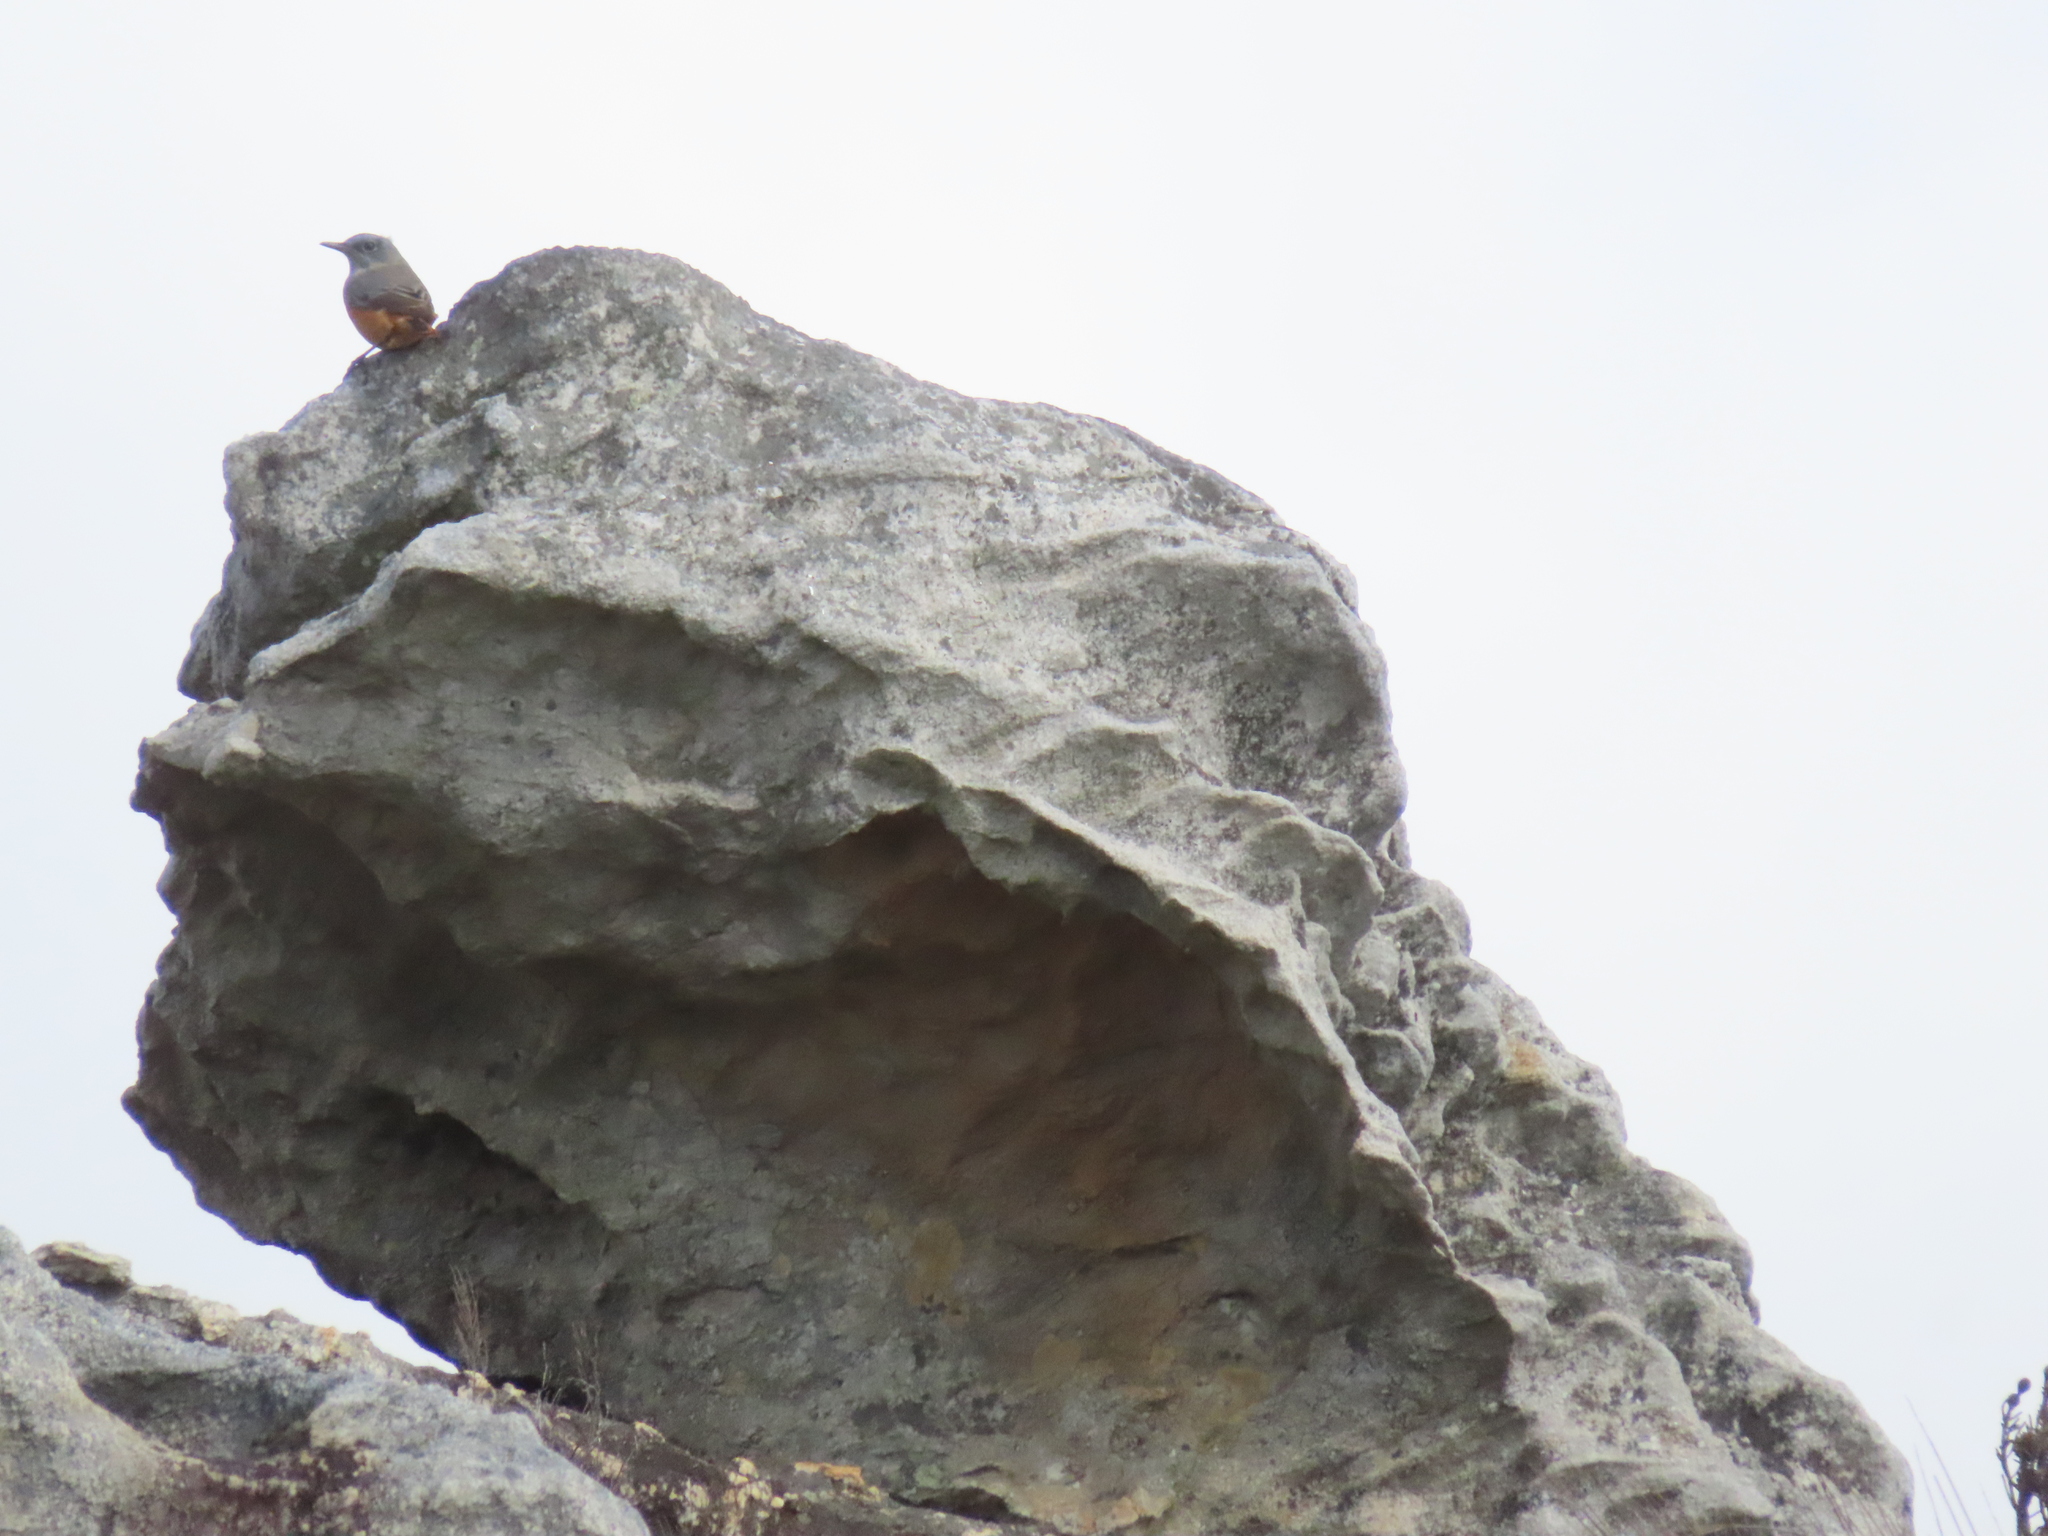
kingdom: Animalia
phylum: Chordata
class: Aves
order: Passeriformes
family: Muscicapidae
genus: Monticola
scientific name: Monticola explorator
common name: Sentinel rock thrush
